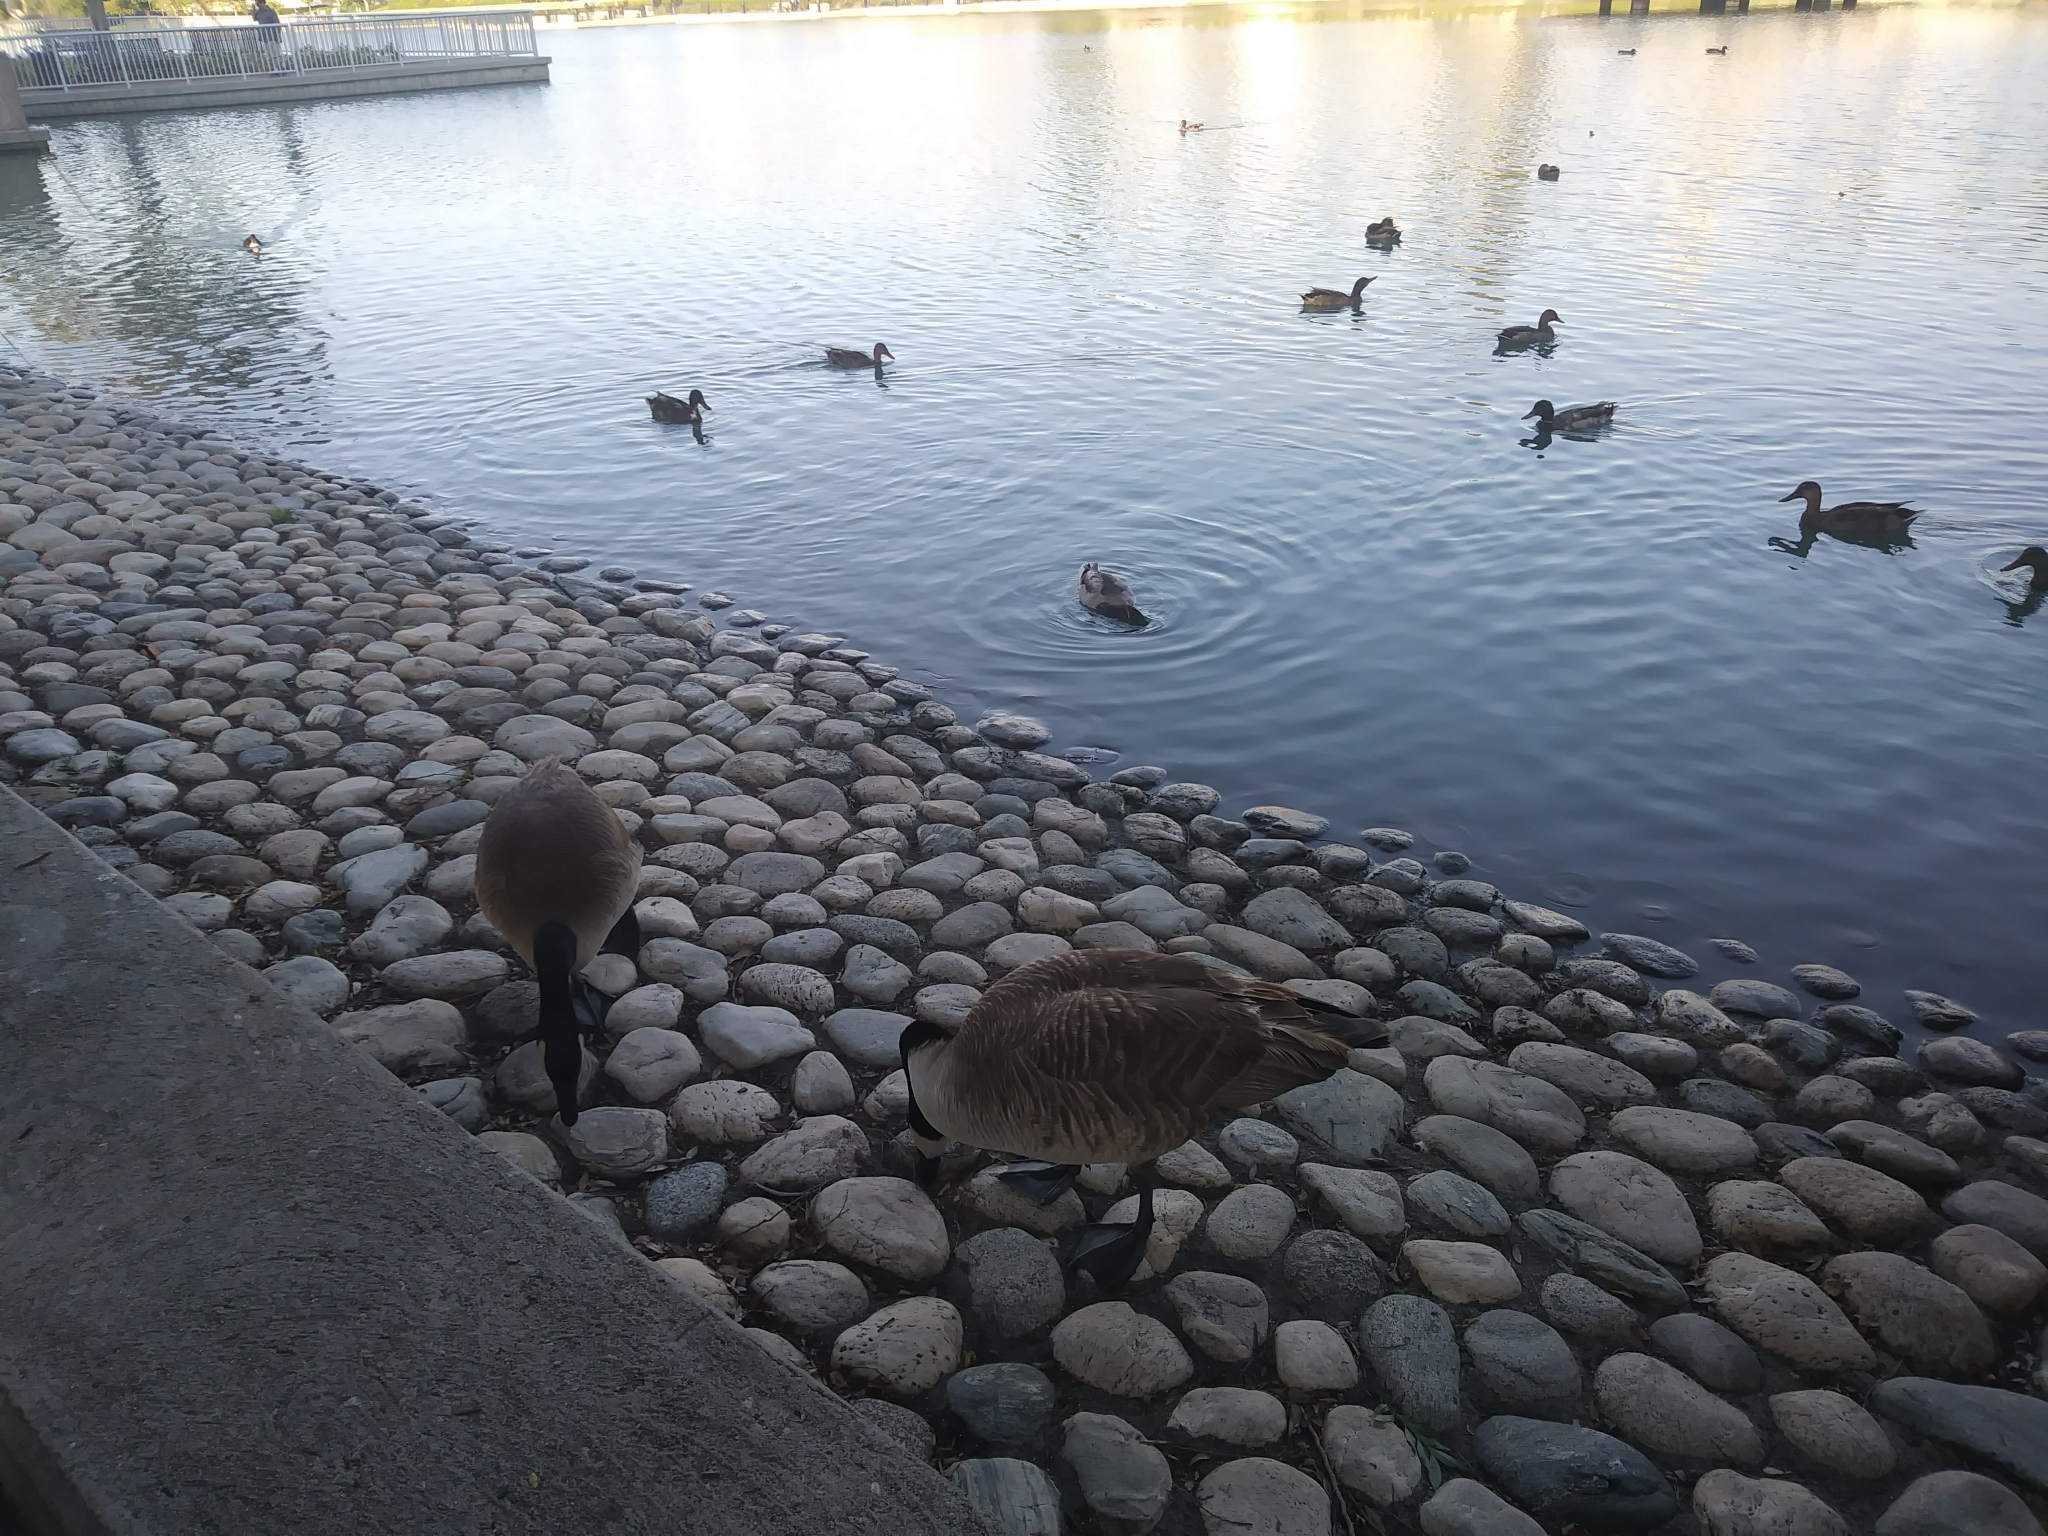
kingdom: Animalia
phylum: Chordata
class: Aves
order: Anseriformes
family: Anatidae
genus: Branta
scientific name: Branta canadensis
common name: Canada goose
